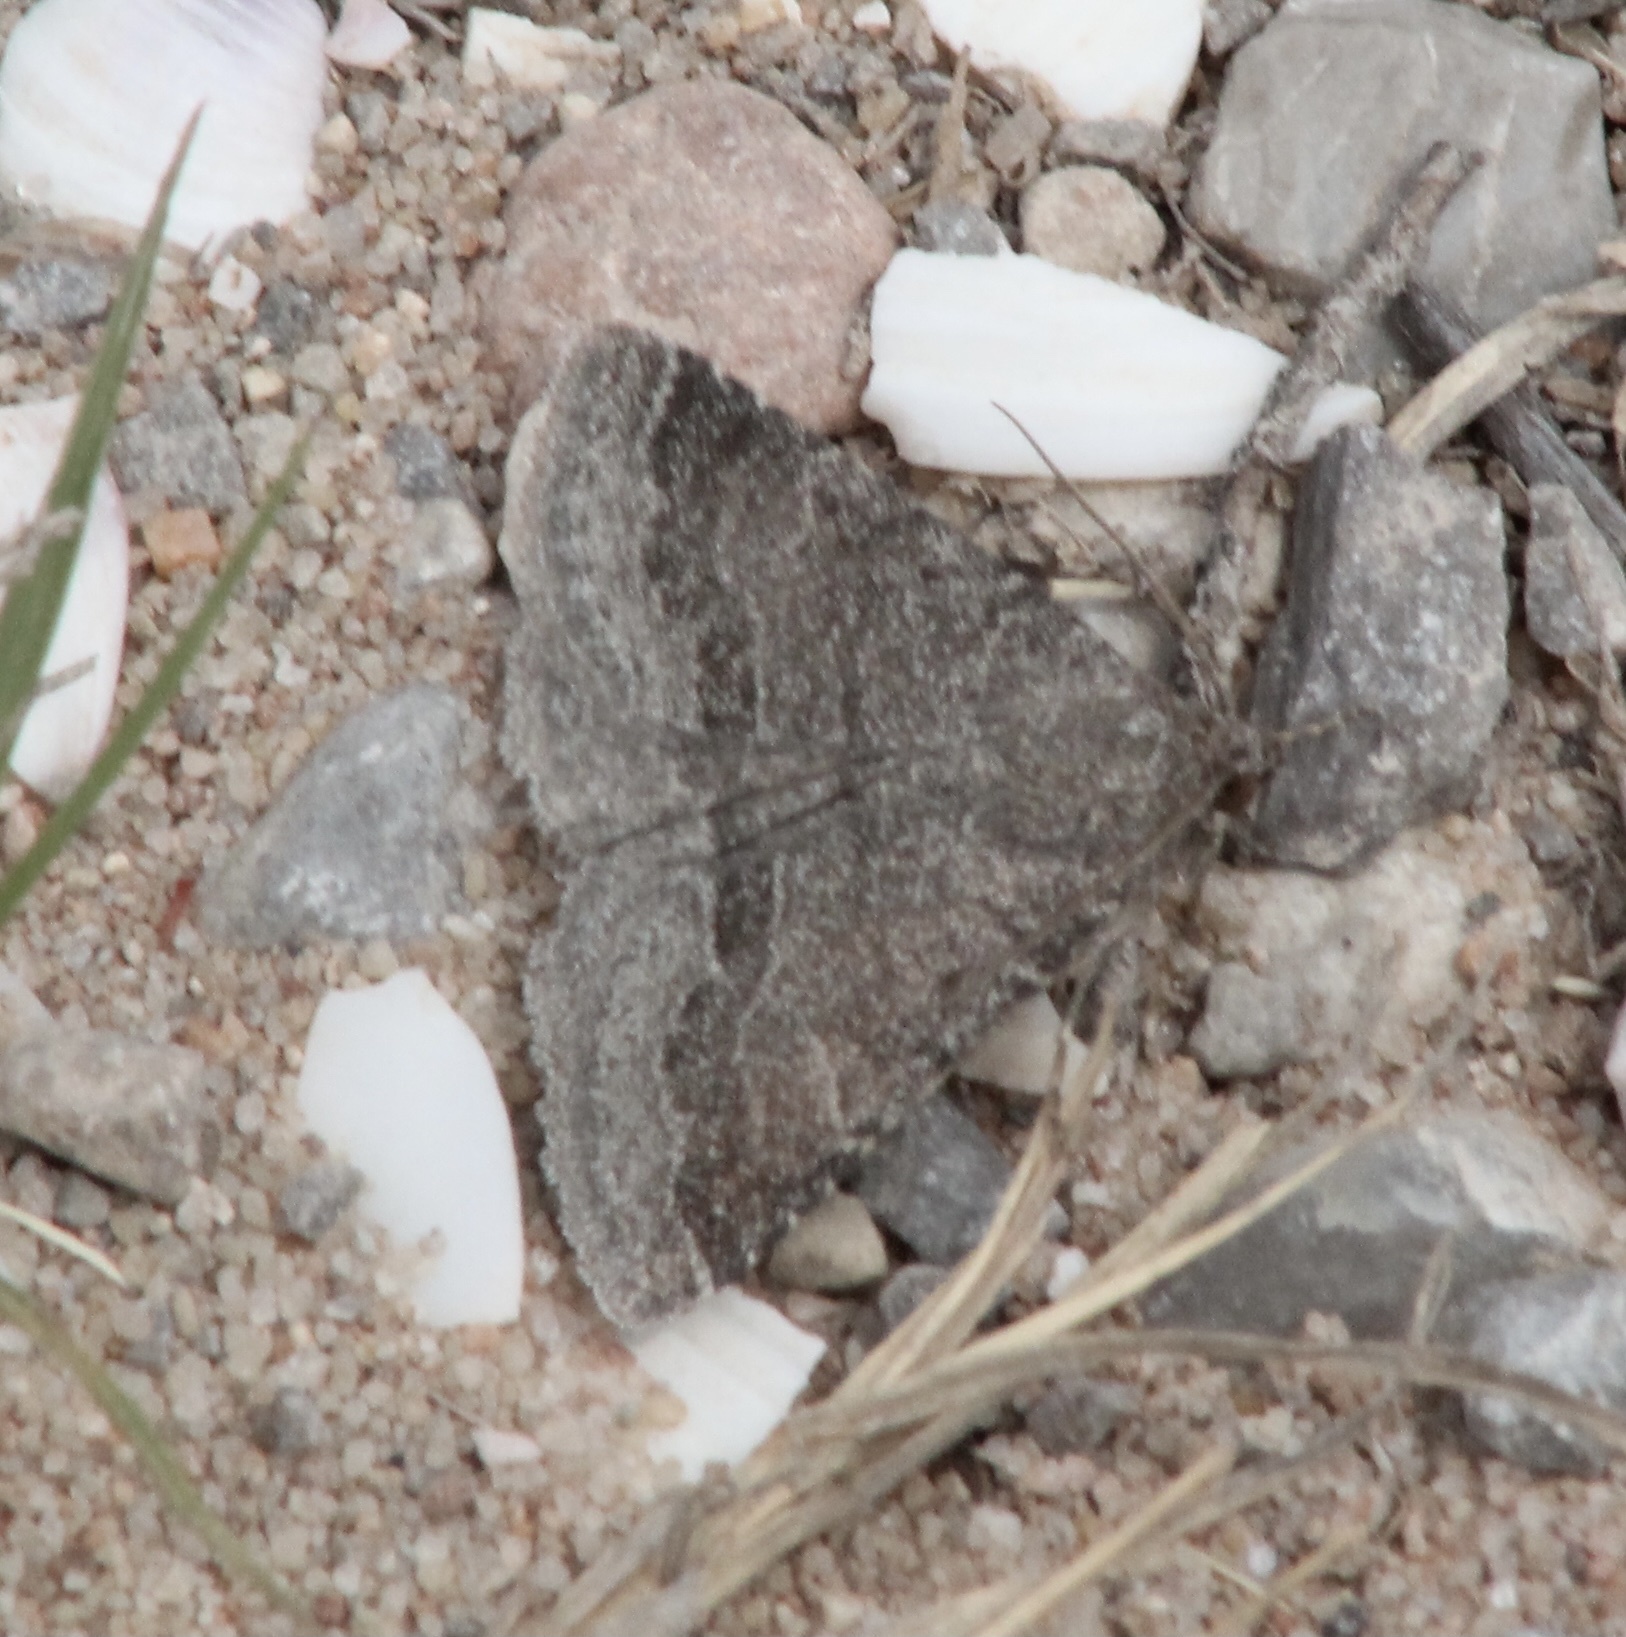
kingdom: Animalia
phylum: Arthropoda
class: Insecta
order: Lepidoptera
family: Erebidae
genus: Matigramma
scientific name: Matigramma pulverilinea
